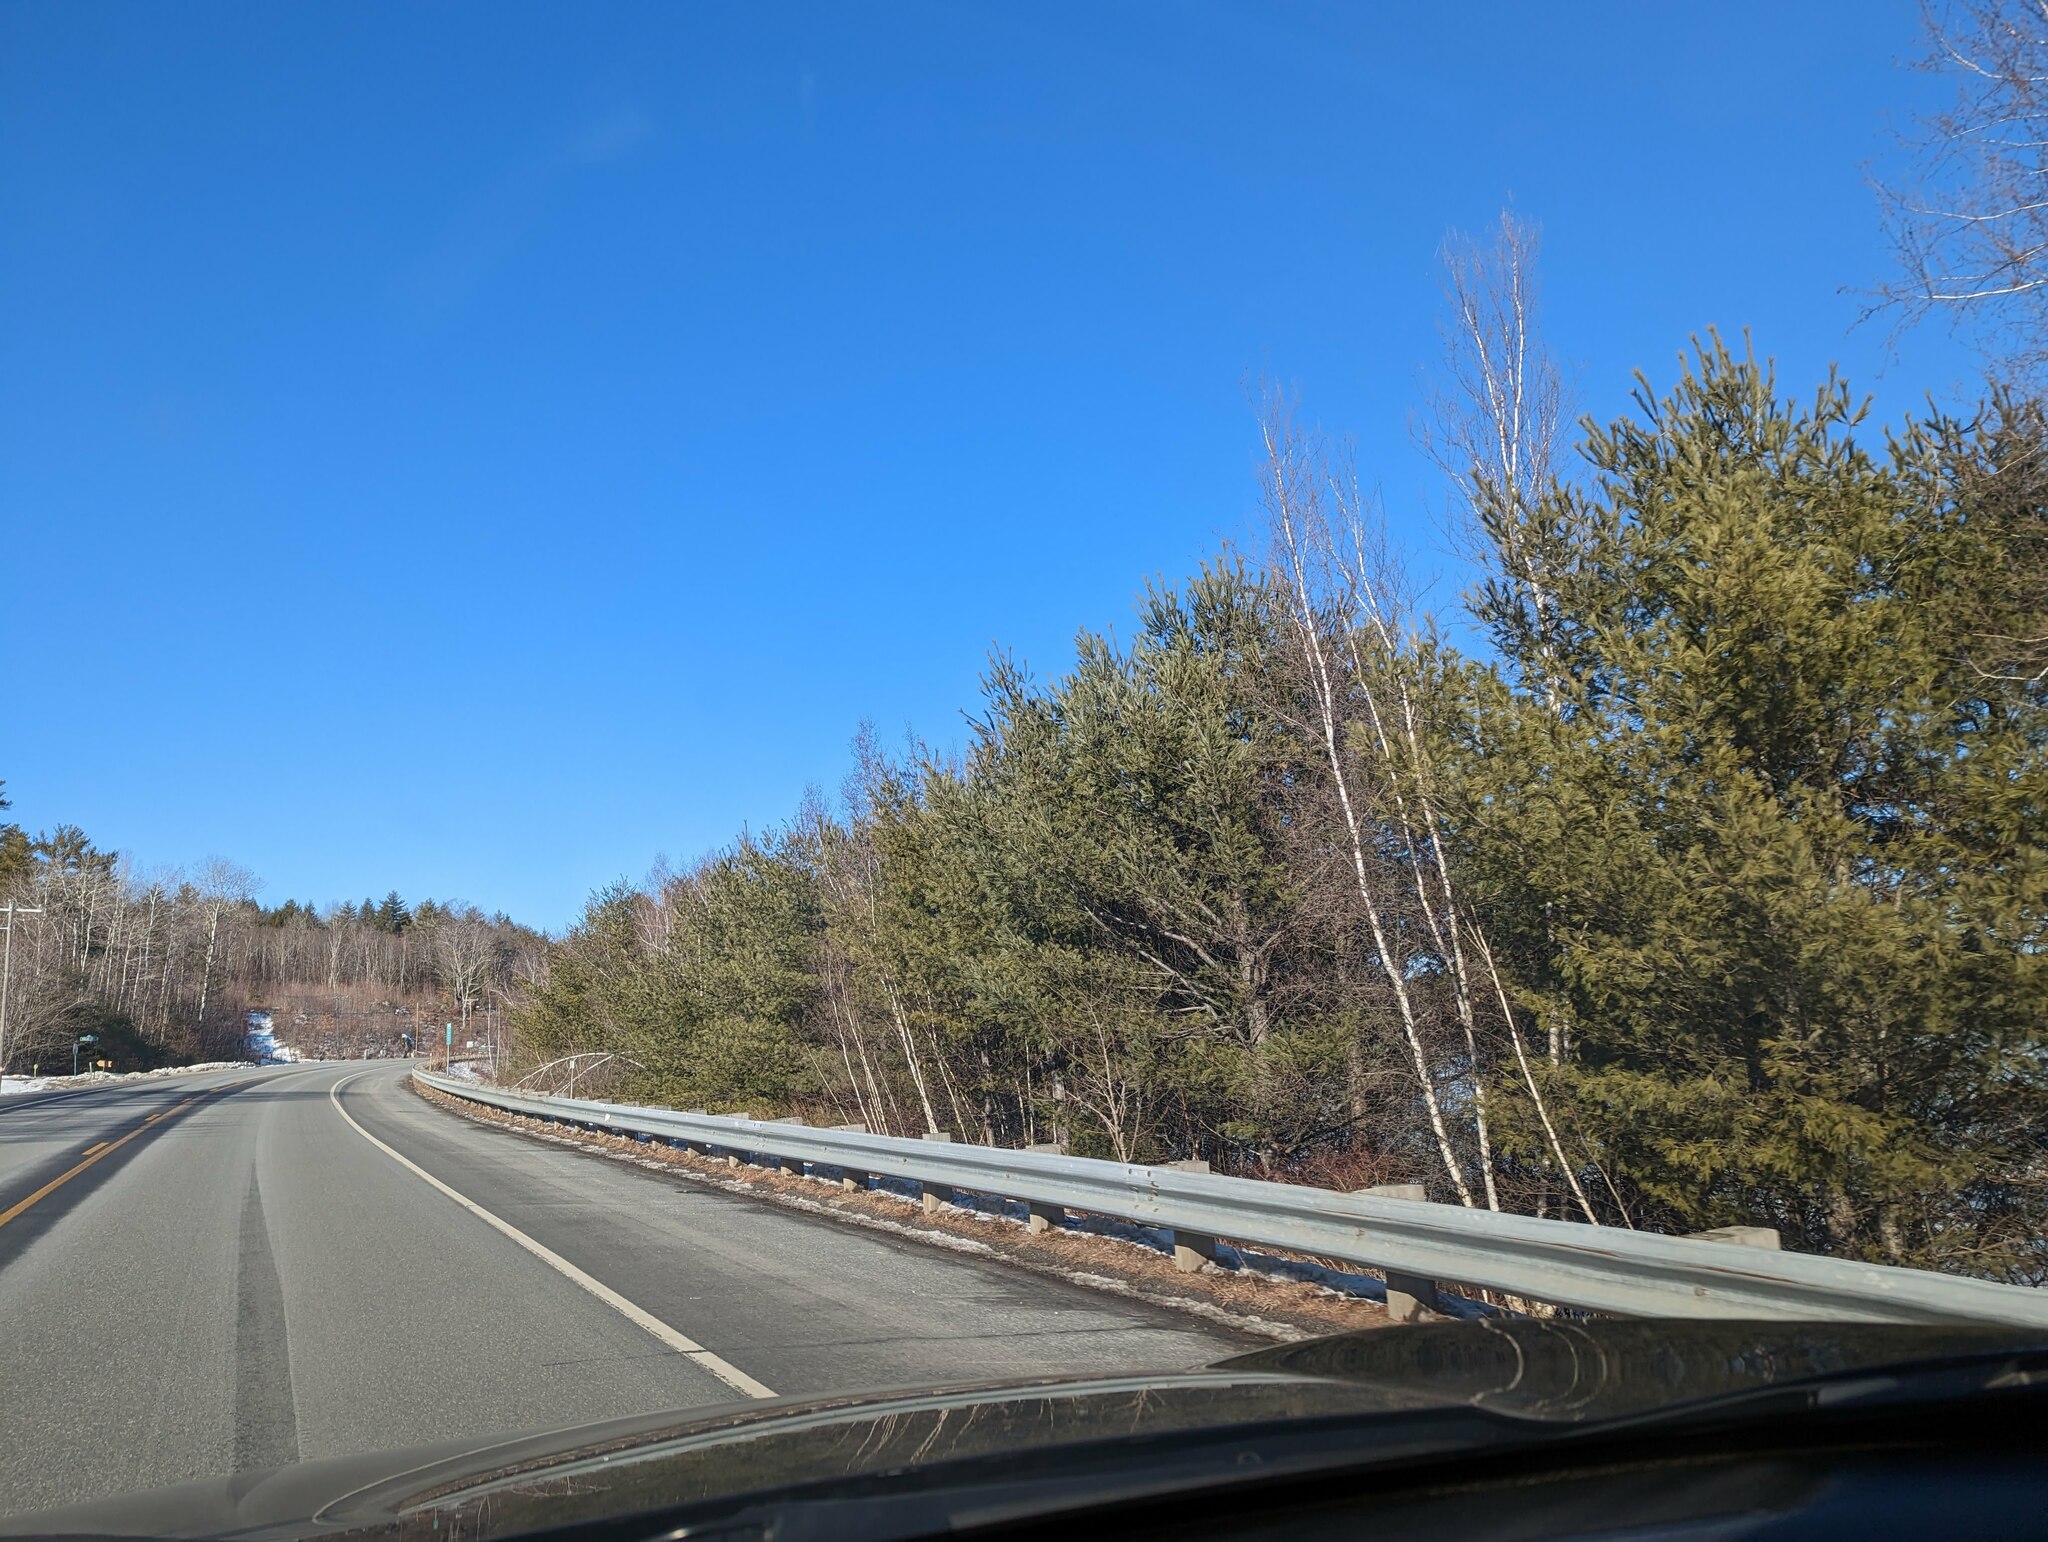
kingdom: Plantae
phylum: Tracheophyta
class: Pinopsida
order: Pinales
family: Pinaceae
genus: Pinus
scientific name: Pinus strobus
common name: Weymouth pine
